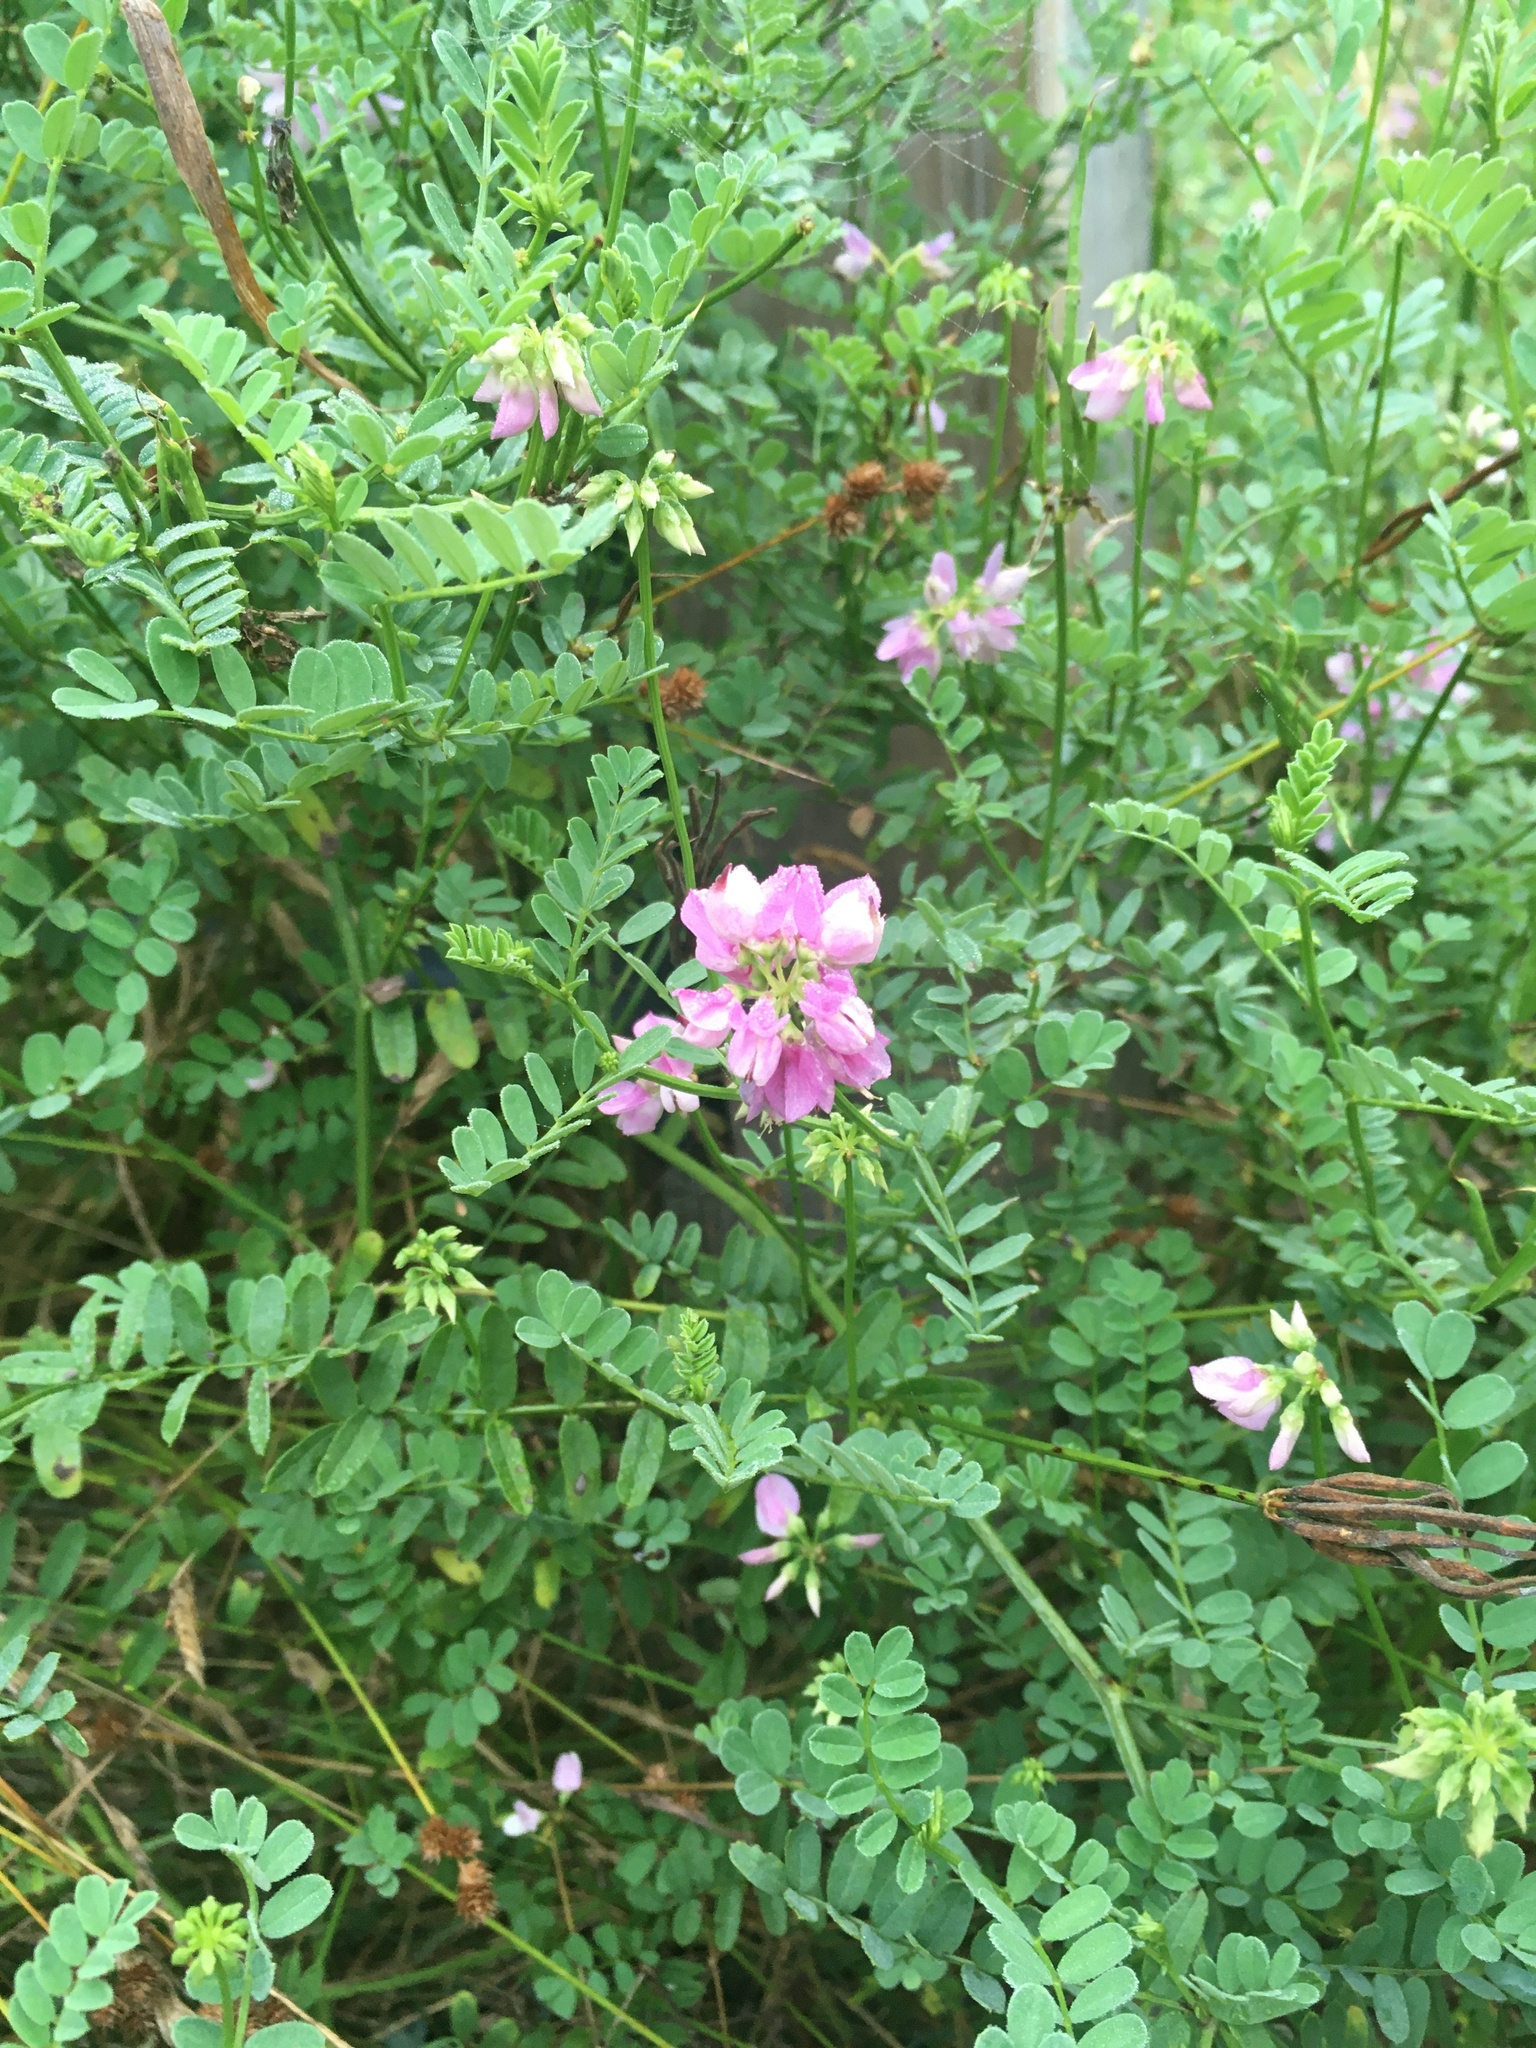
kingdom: Plantae
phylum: Tracheophyta
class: Magnoliopsida
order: Fabales
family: Fabaceae
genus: Coronilla
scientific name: Coronilla varia
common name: Crownvetch
